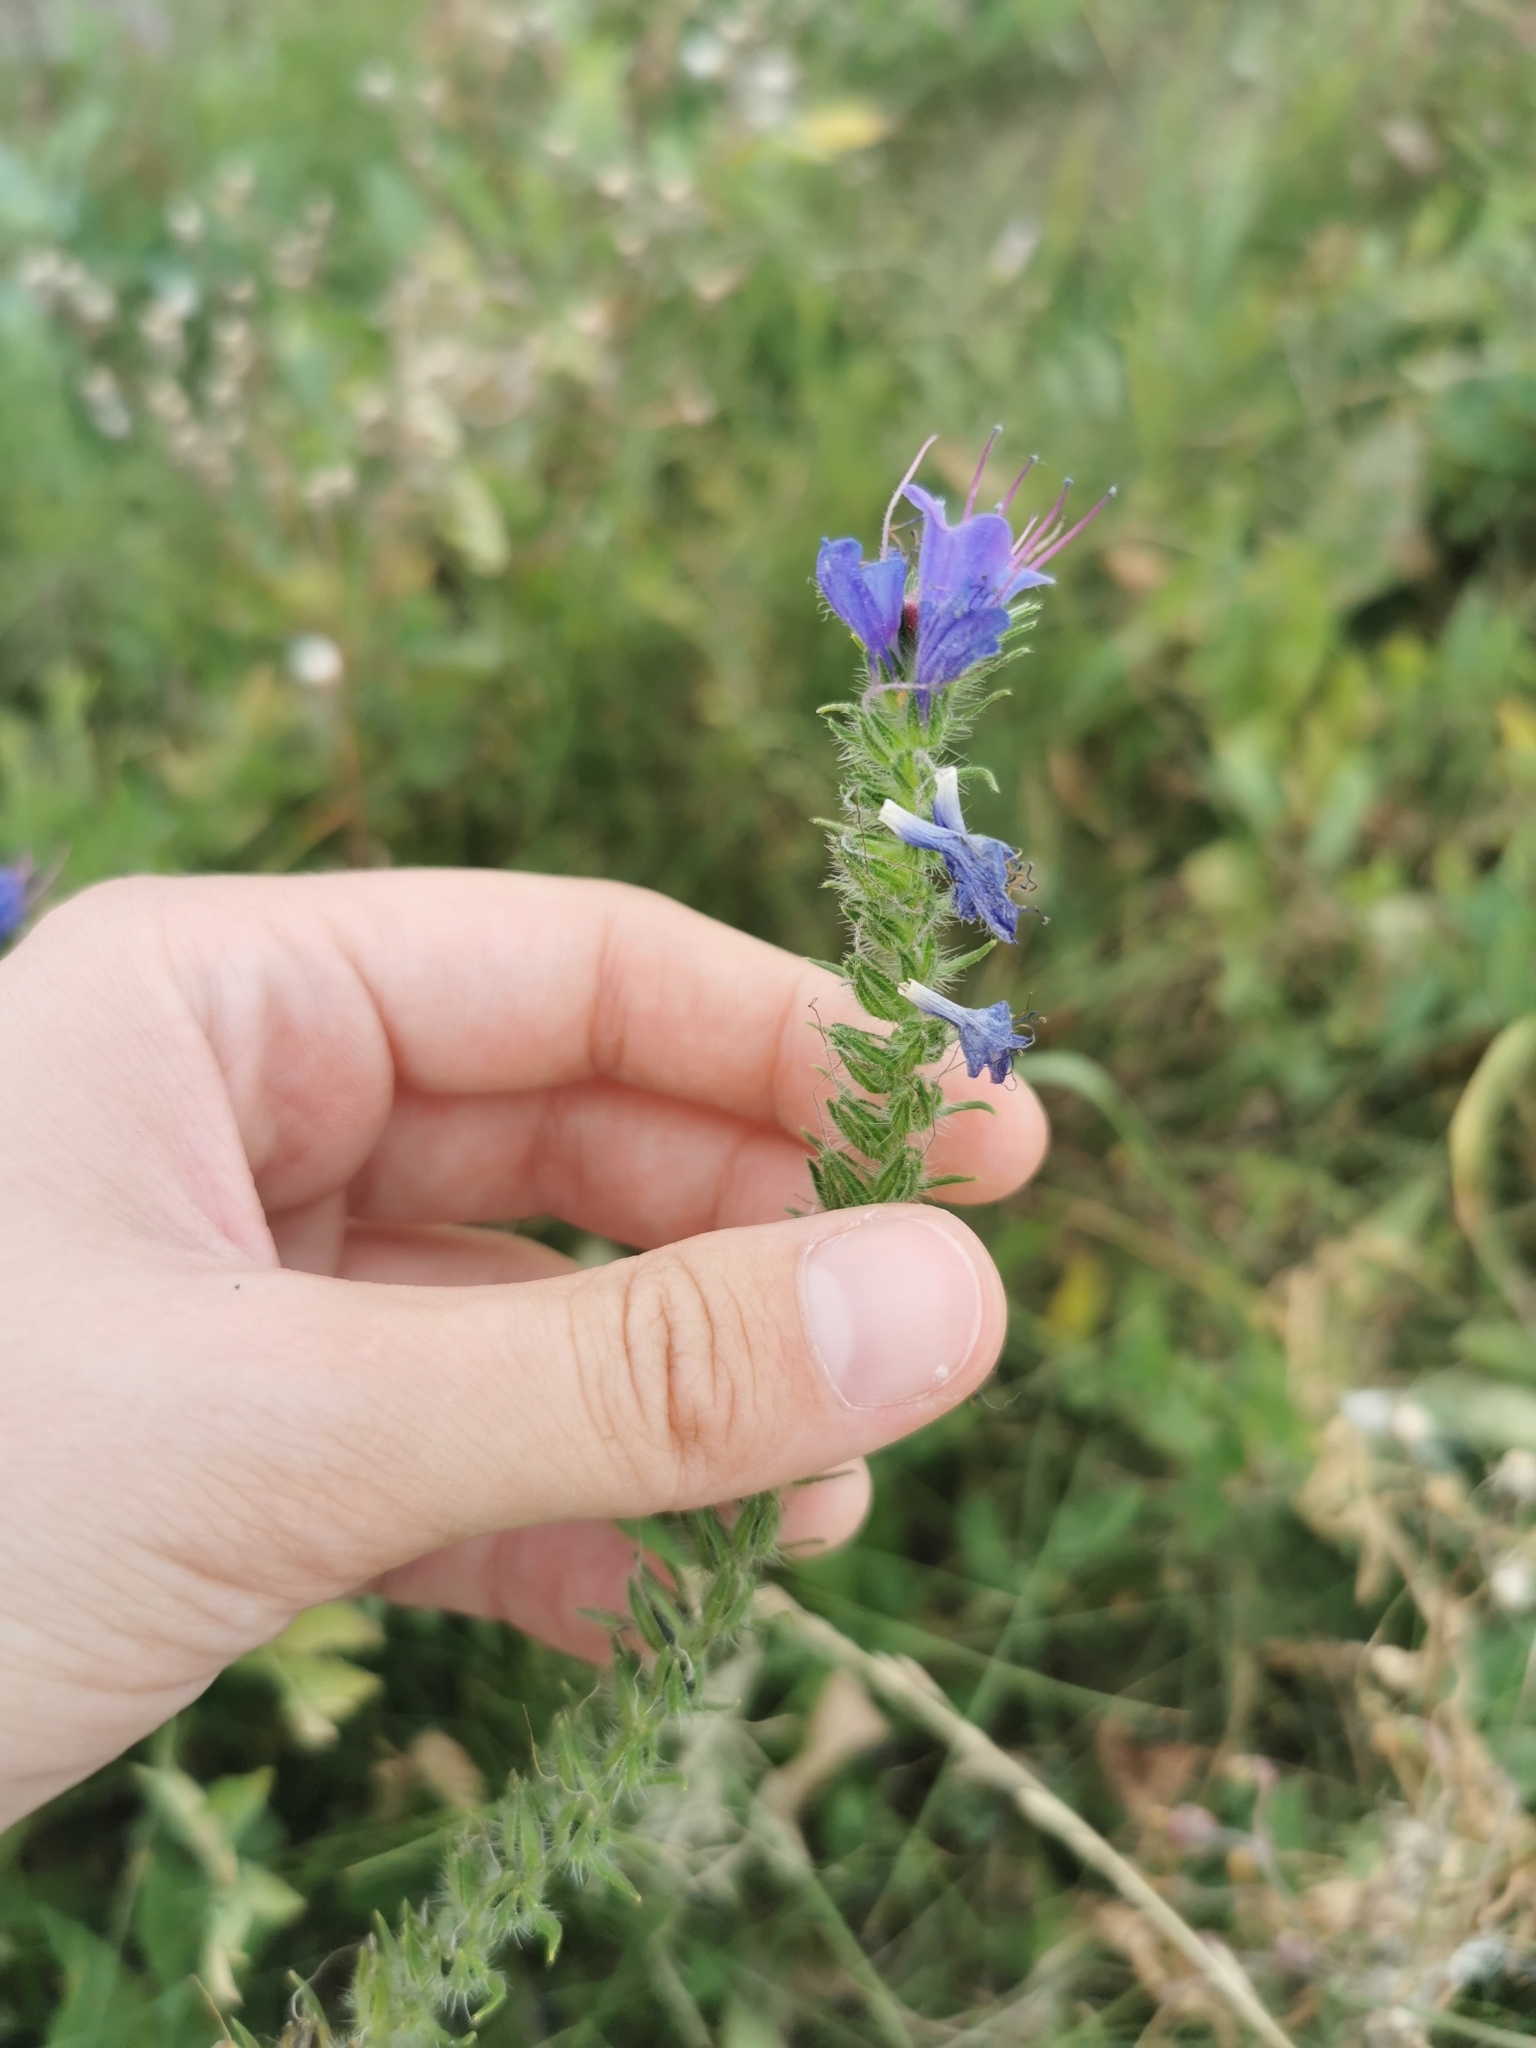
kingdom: Plantae
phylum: Tracheophyta
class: Magnoliopsida
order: Boraginales
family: Boraginaceae
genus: Echium
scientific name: Echium vulgare
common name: Common viper's bugloss
